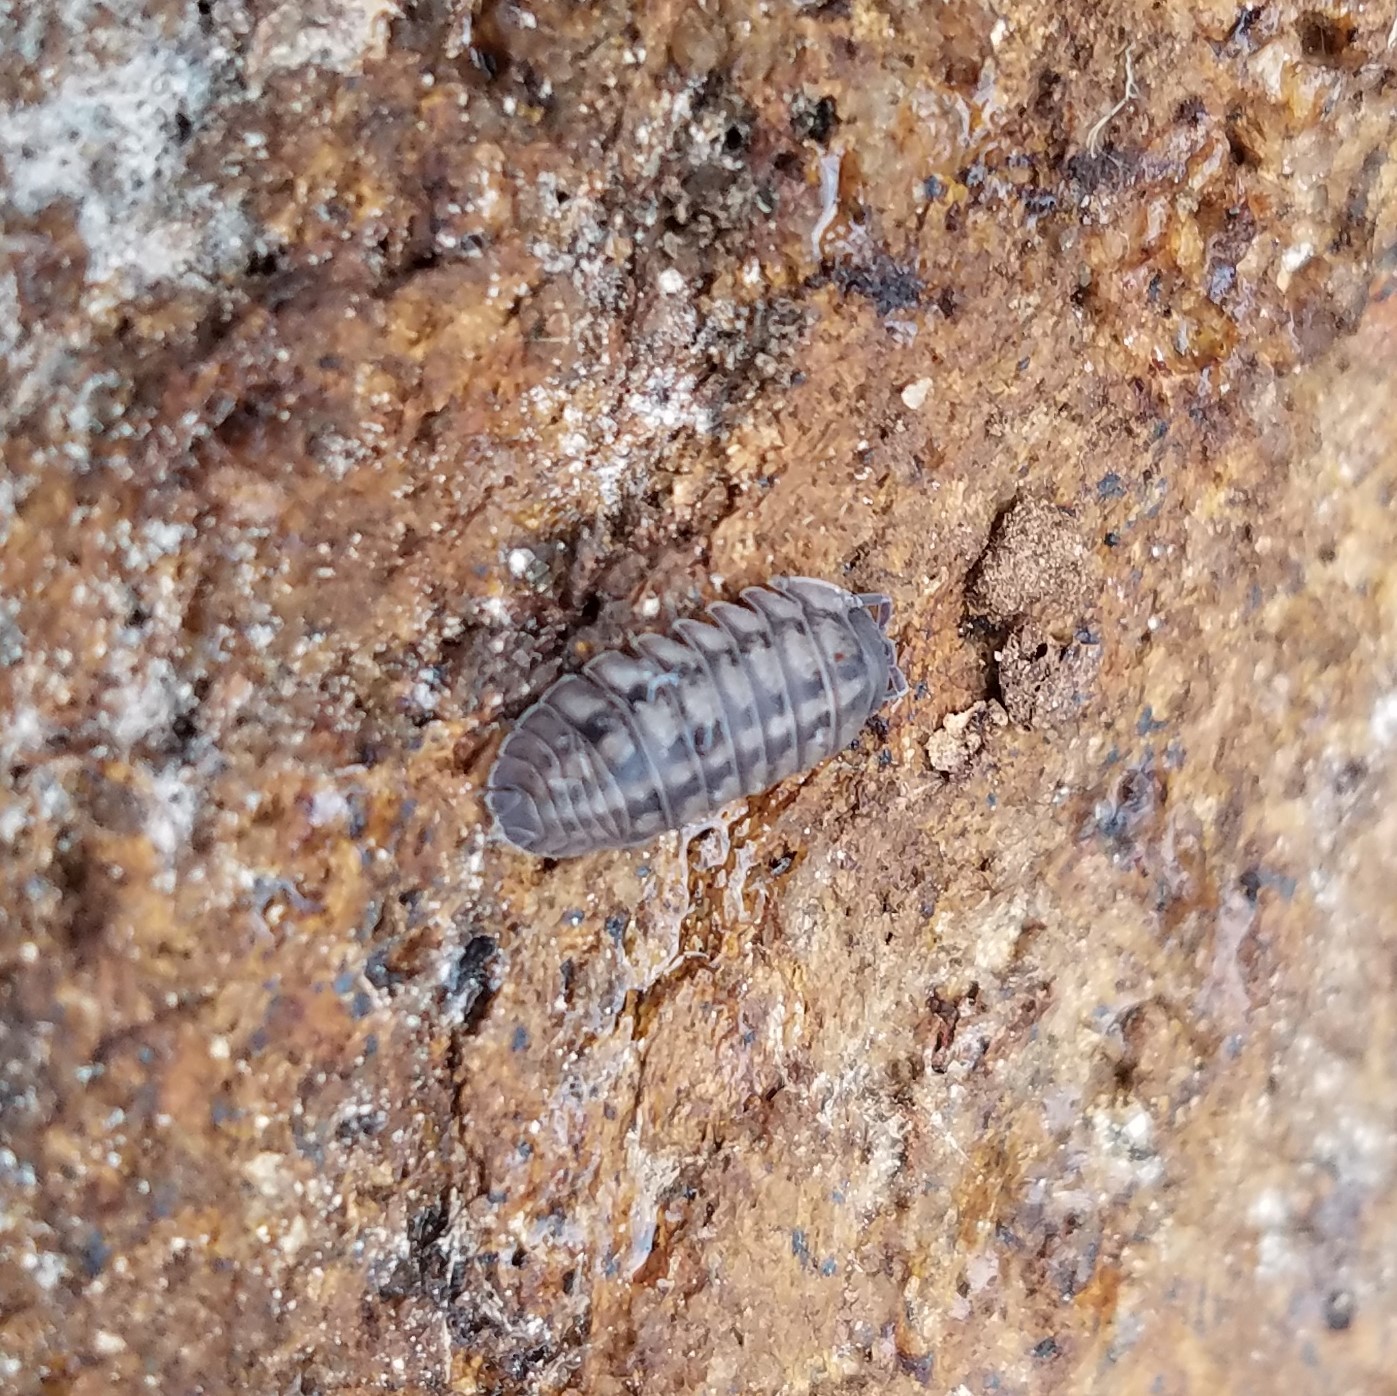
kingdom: Animalia
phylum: Arthropoda
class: Malacostraca
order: Isopoda
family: Armadillidiidae
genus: Armadillidium
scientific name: Armadillidium nasatum
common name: Isopod
